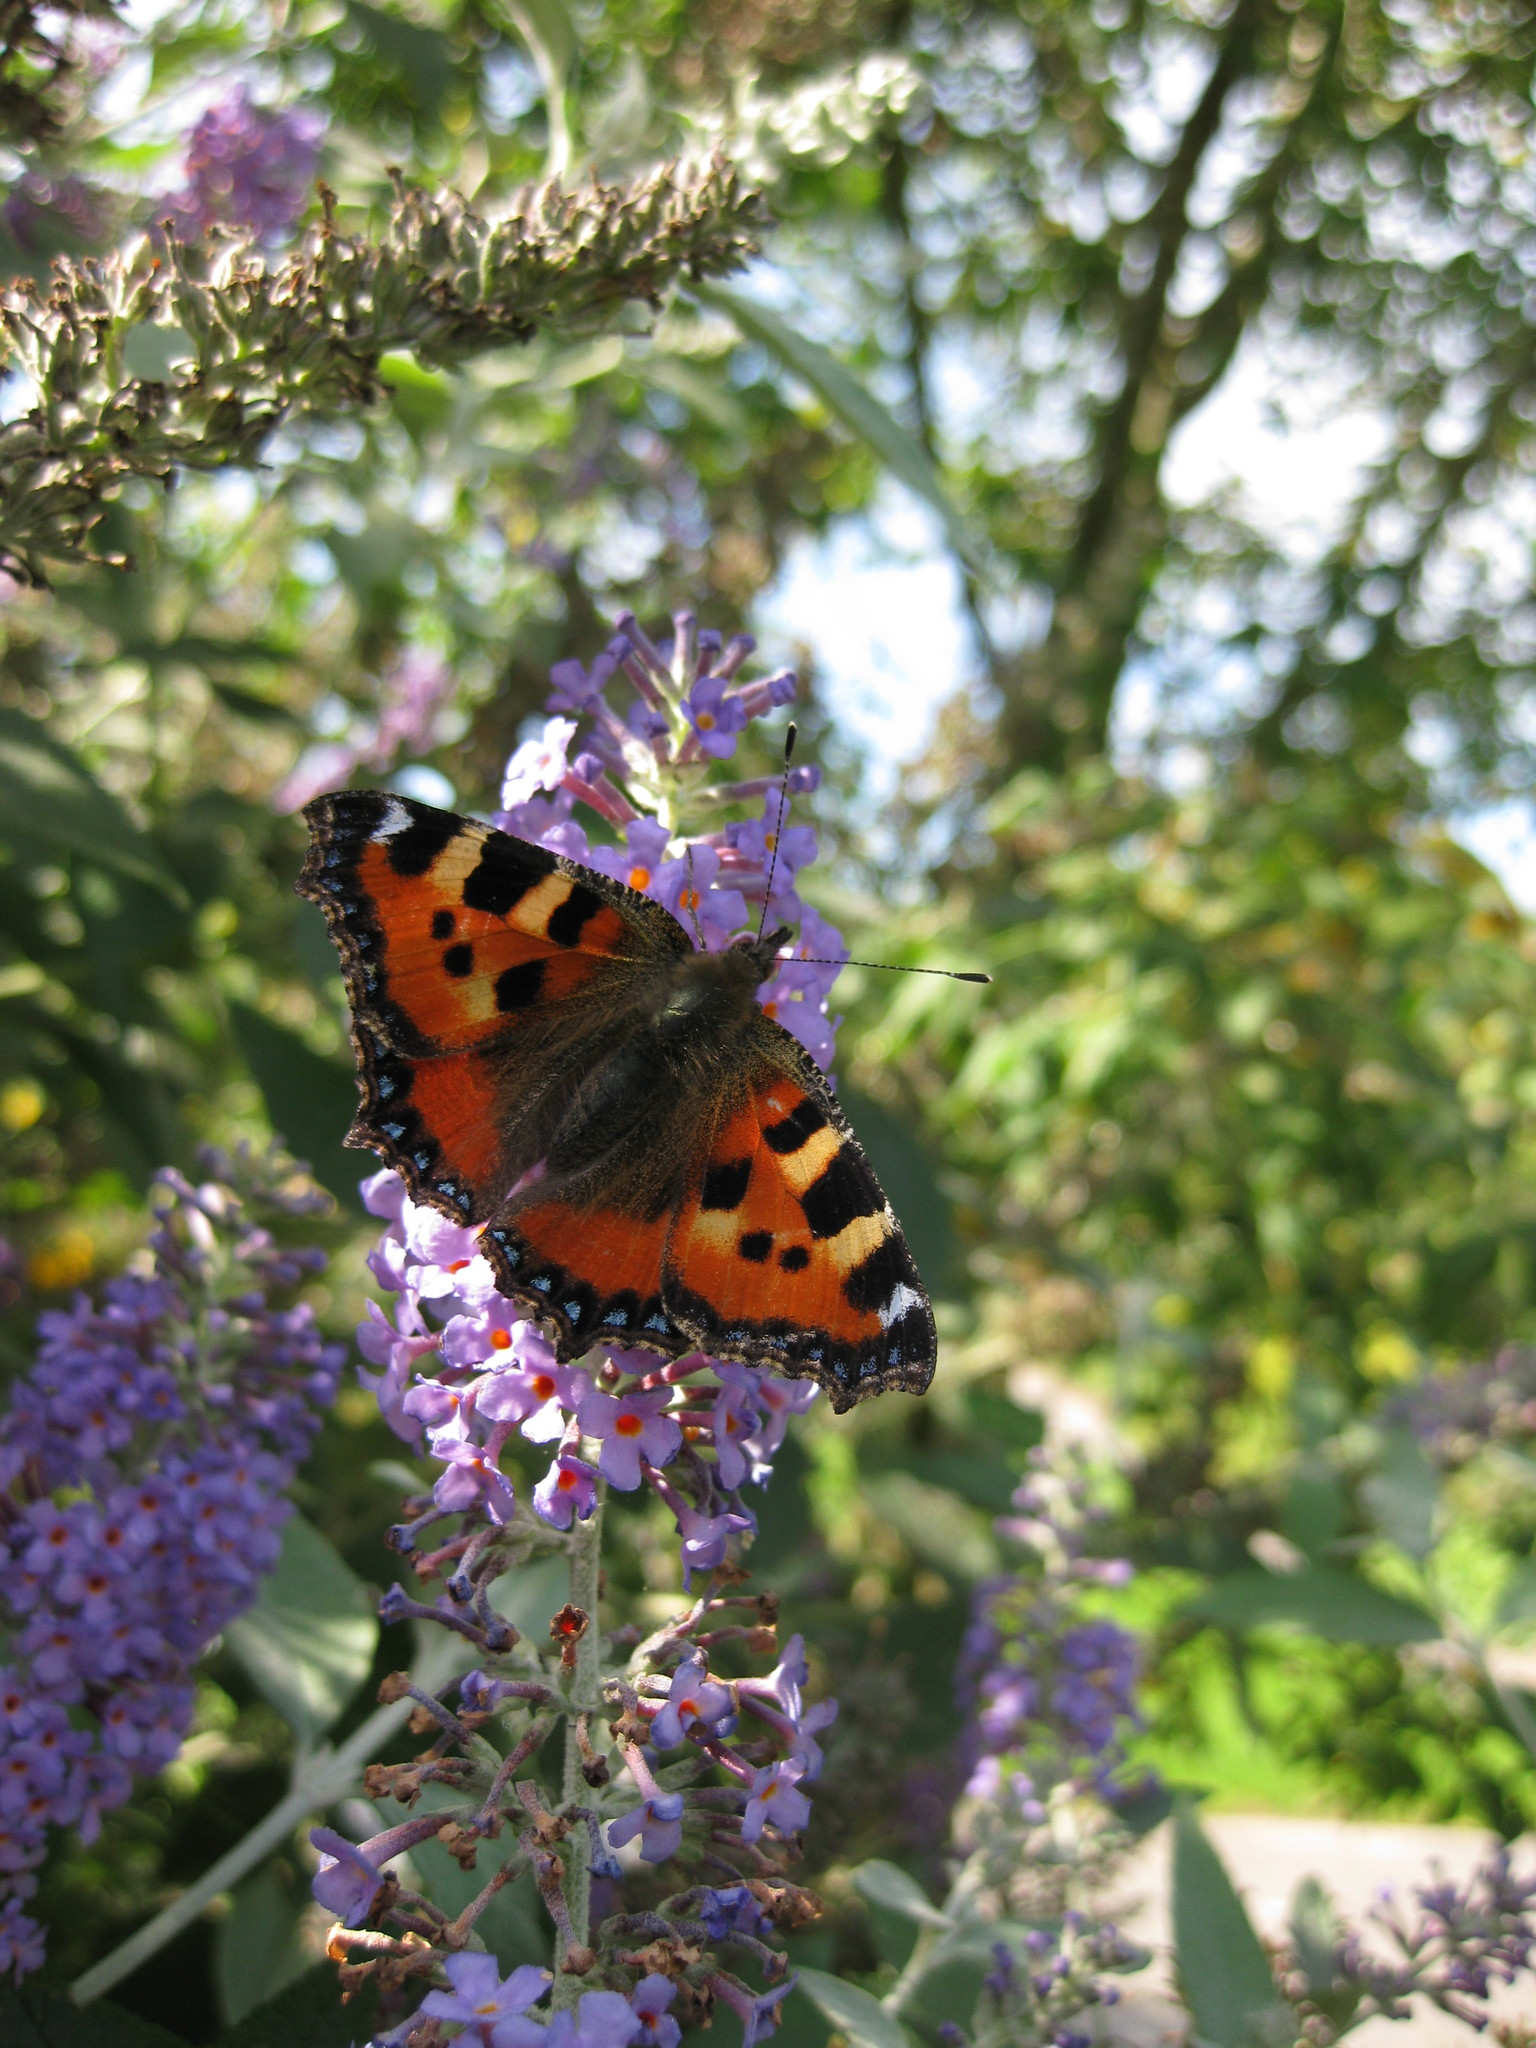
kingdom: Animalia
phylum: Arthropoda
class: Insecta
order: Lepidoptera
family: Nymphalidae
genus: Aglais
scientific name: Aglais urticae
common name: Small tortoiseshell
